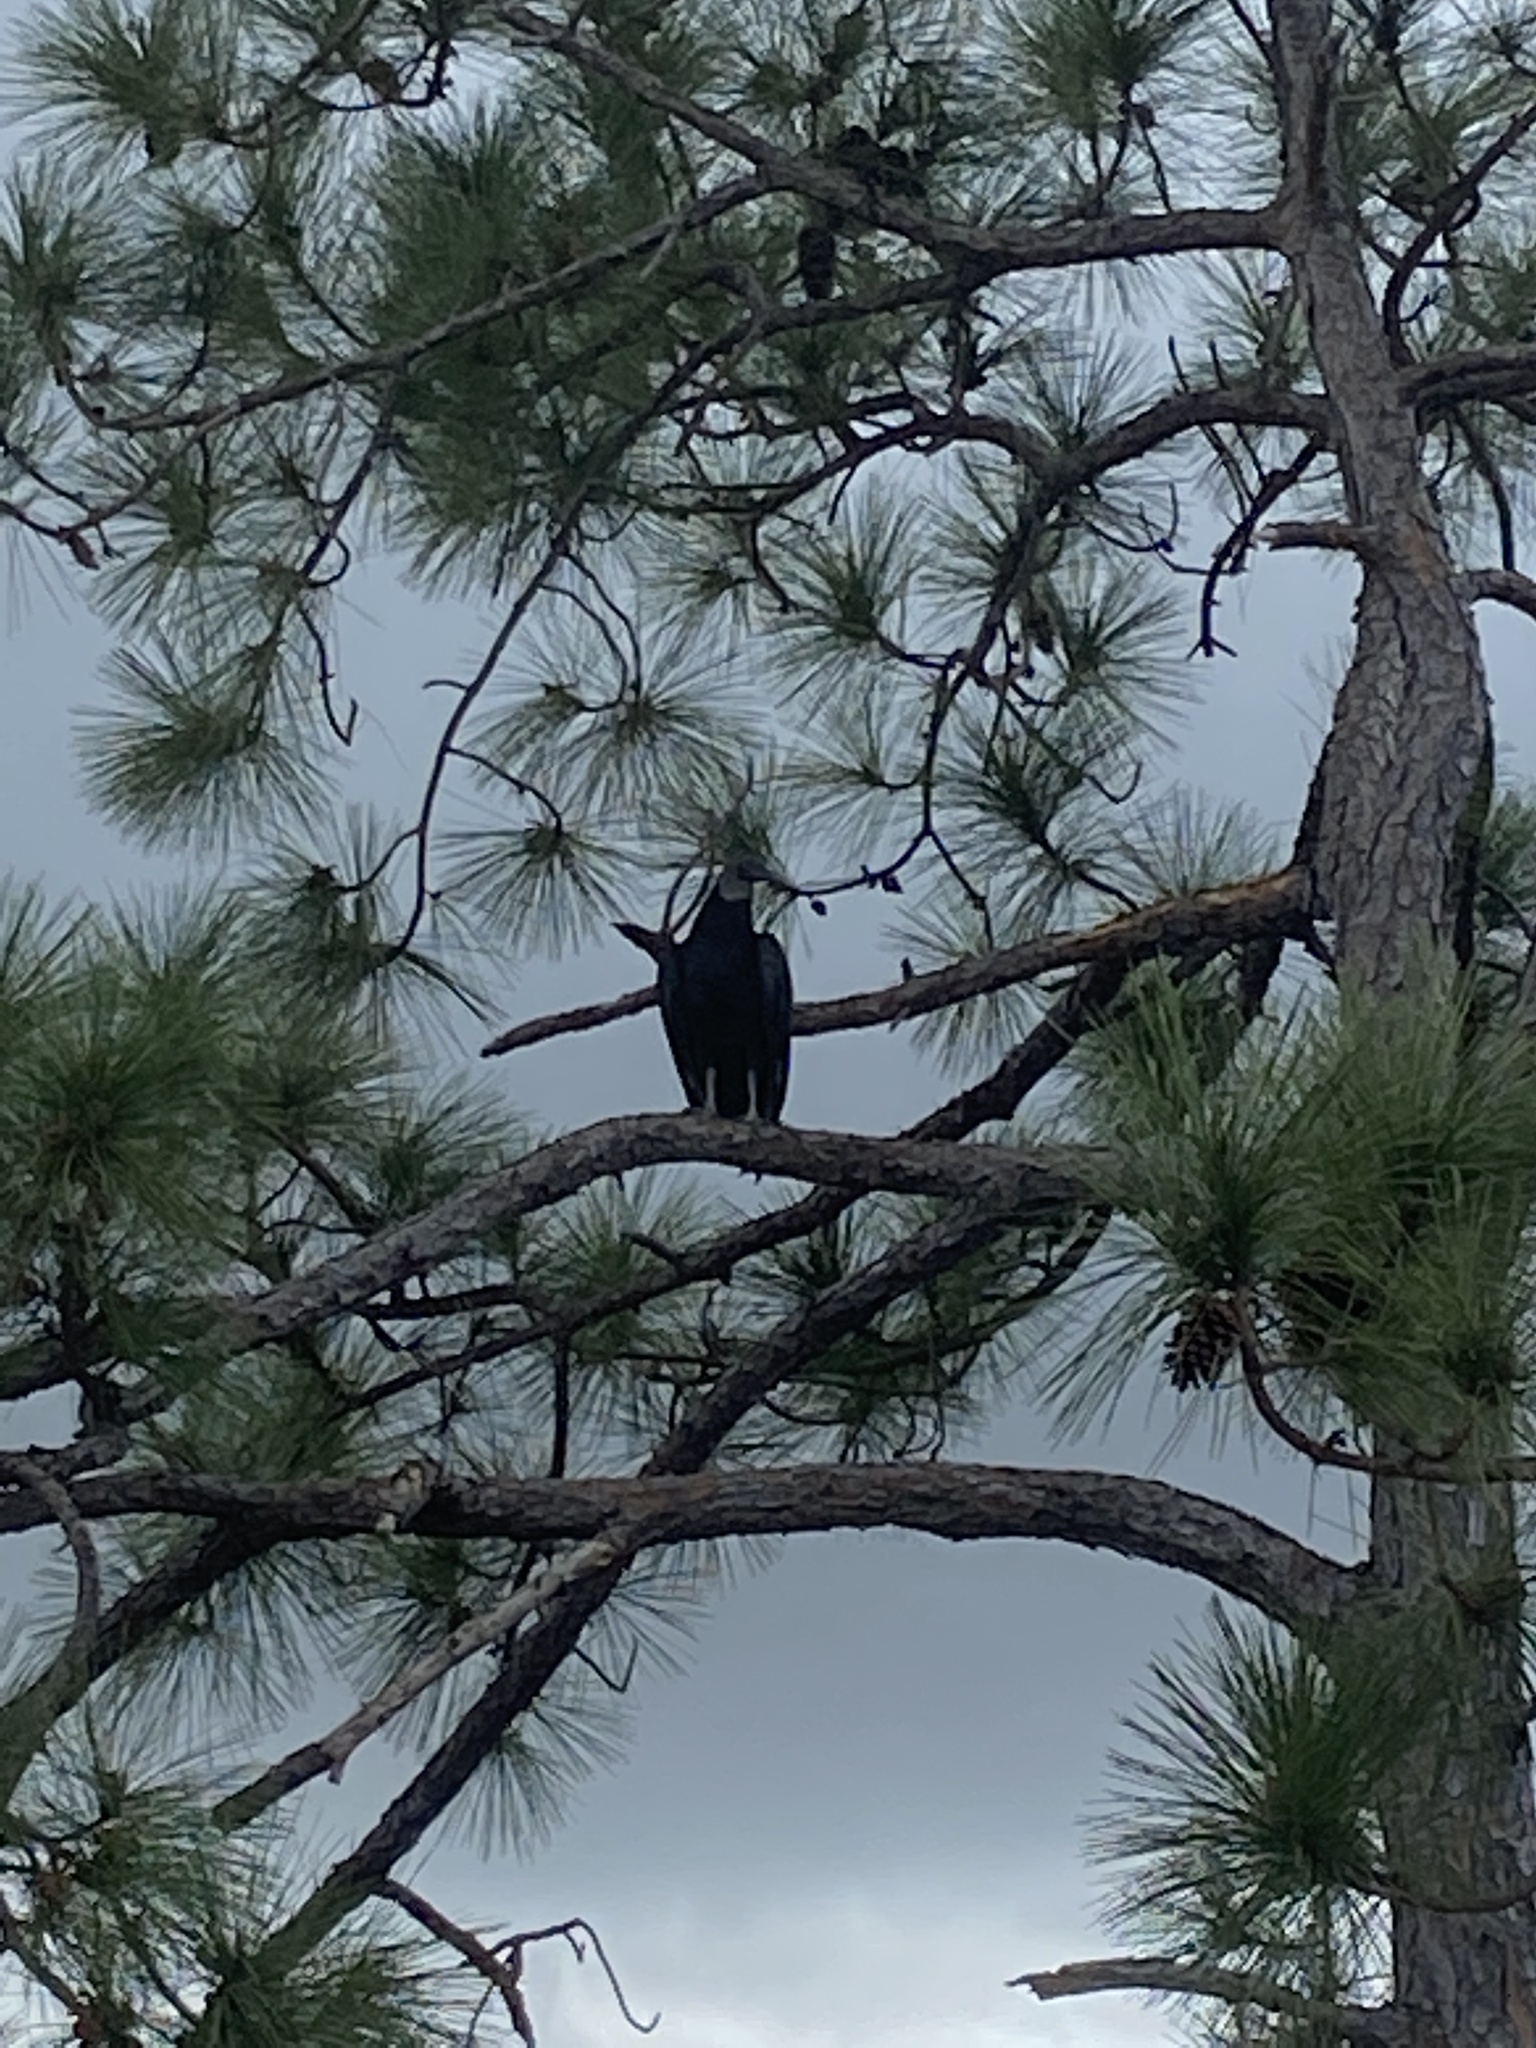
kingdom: Animalia
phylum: Chordata
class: Aves
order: Accipitriformes
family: Cathartidae
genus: Coragyps
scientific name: Coragyps atratus
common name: Black vulture
